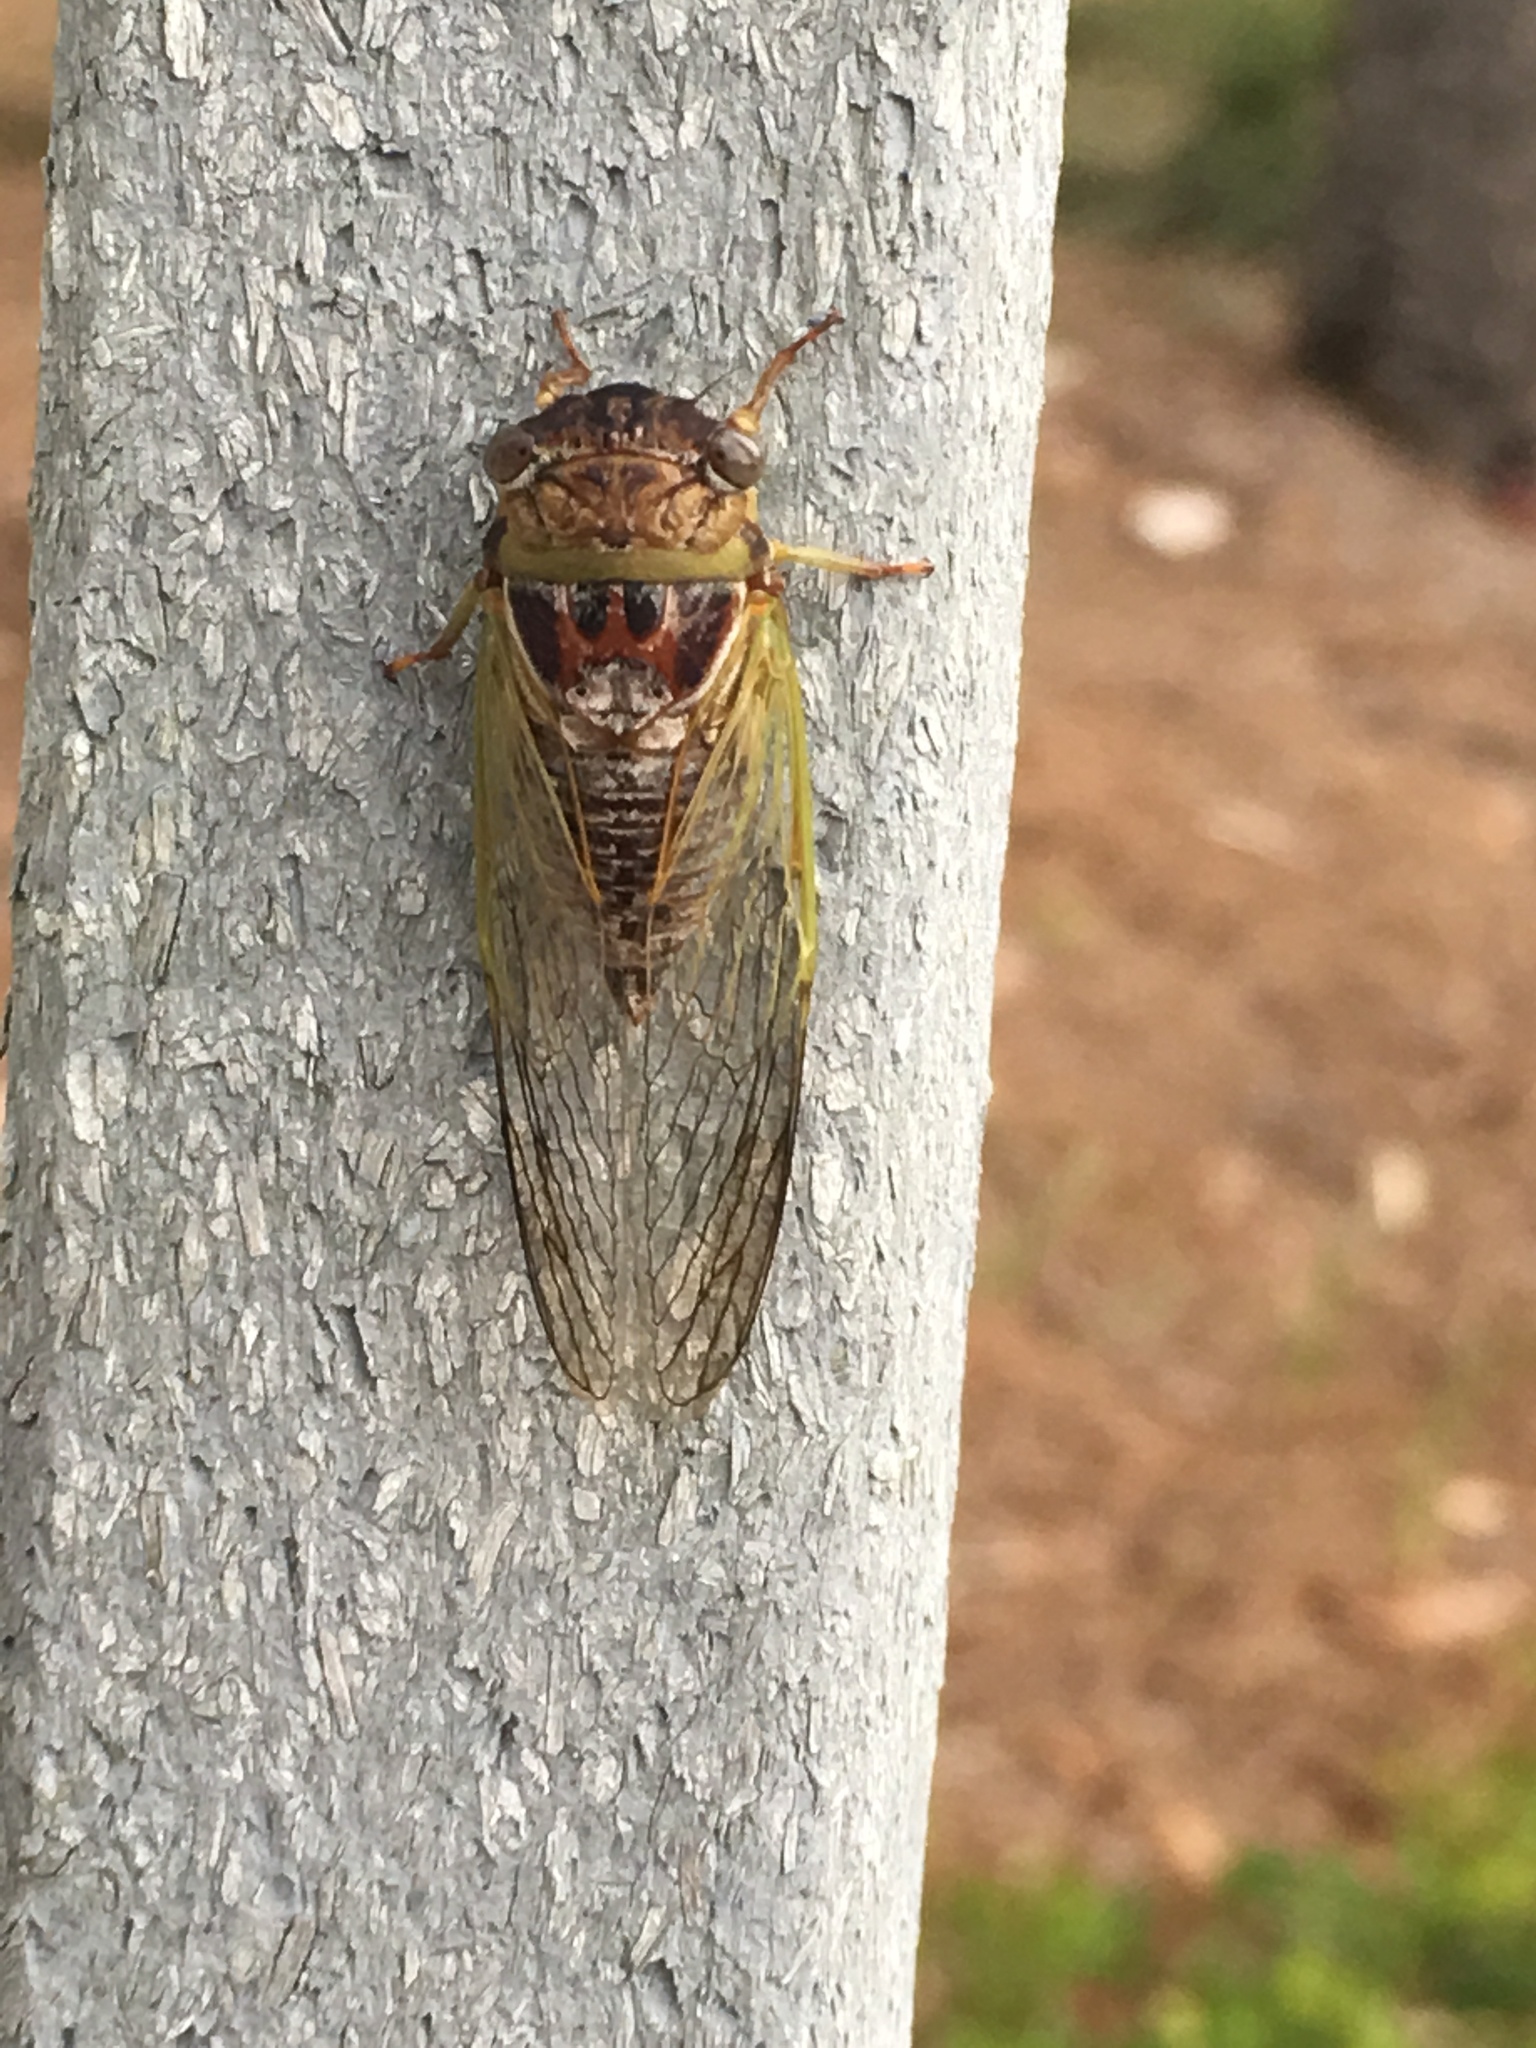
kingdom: Animalia
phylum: Arthropoda
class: Insecta
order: Hemiptera
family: Cicadidae
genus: Diceroprocta
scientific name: Diceroprocta olympusa
